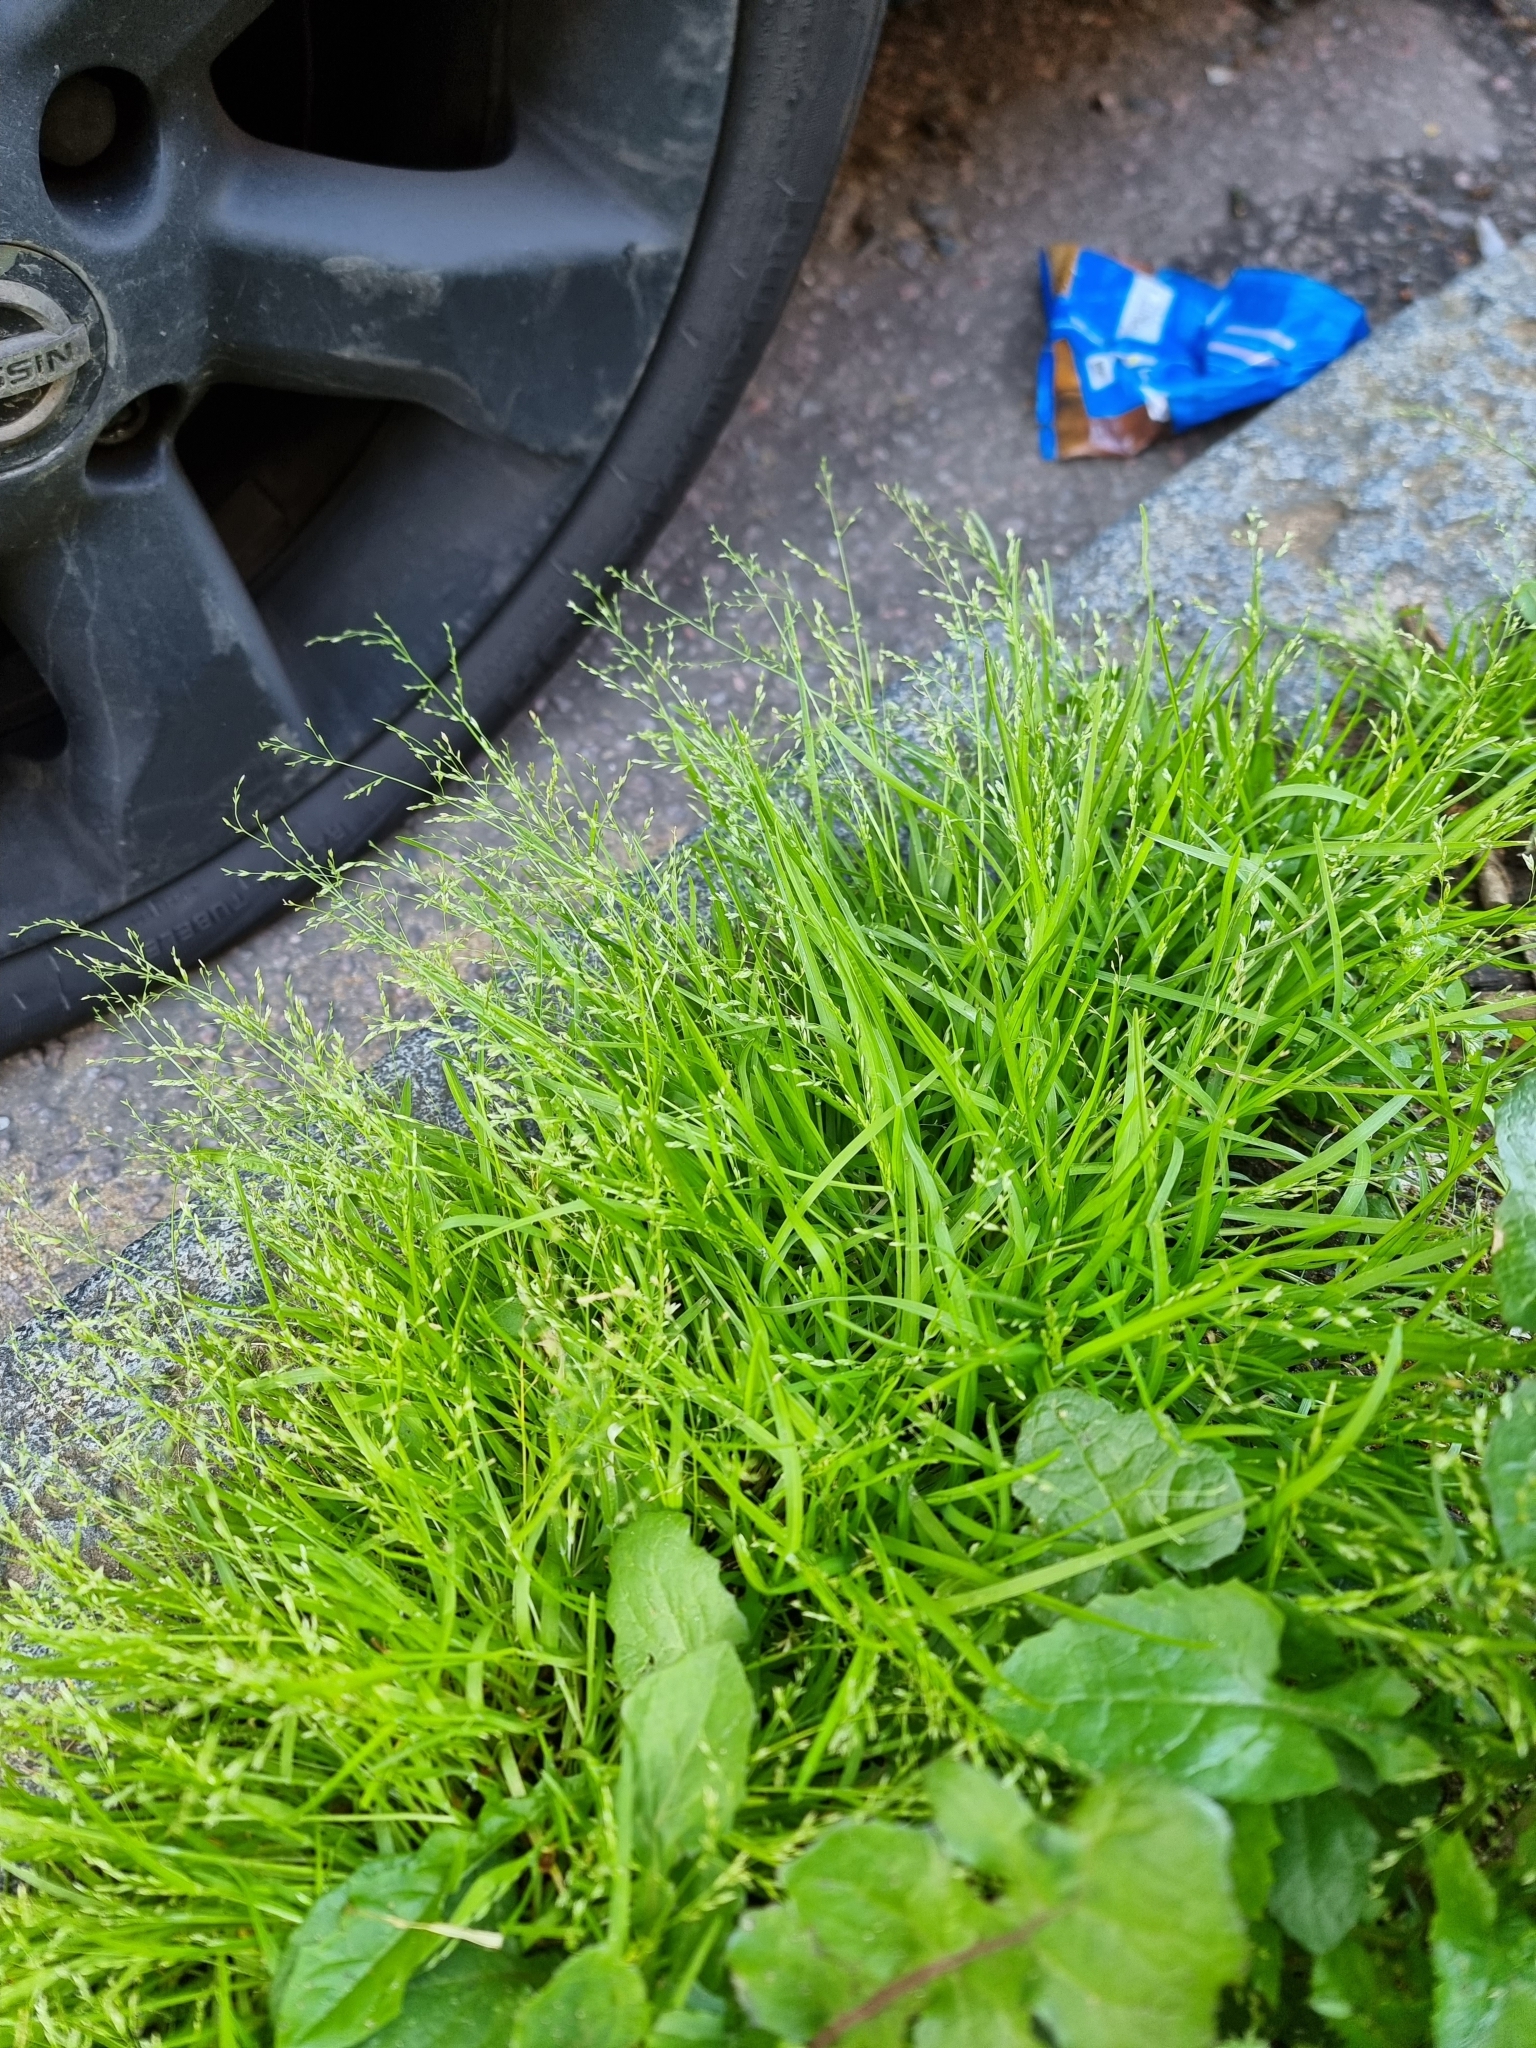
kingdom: Plantae
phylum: Tracheophyta
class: Liliopsida
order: Poales
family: Poaceae
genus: Poa
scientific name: Poa infirma
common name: Weak bluegrass
